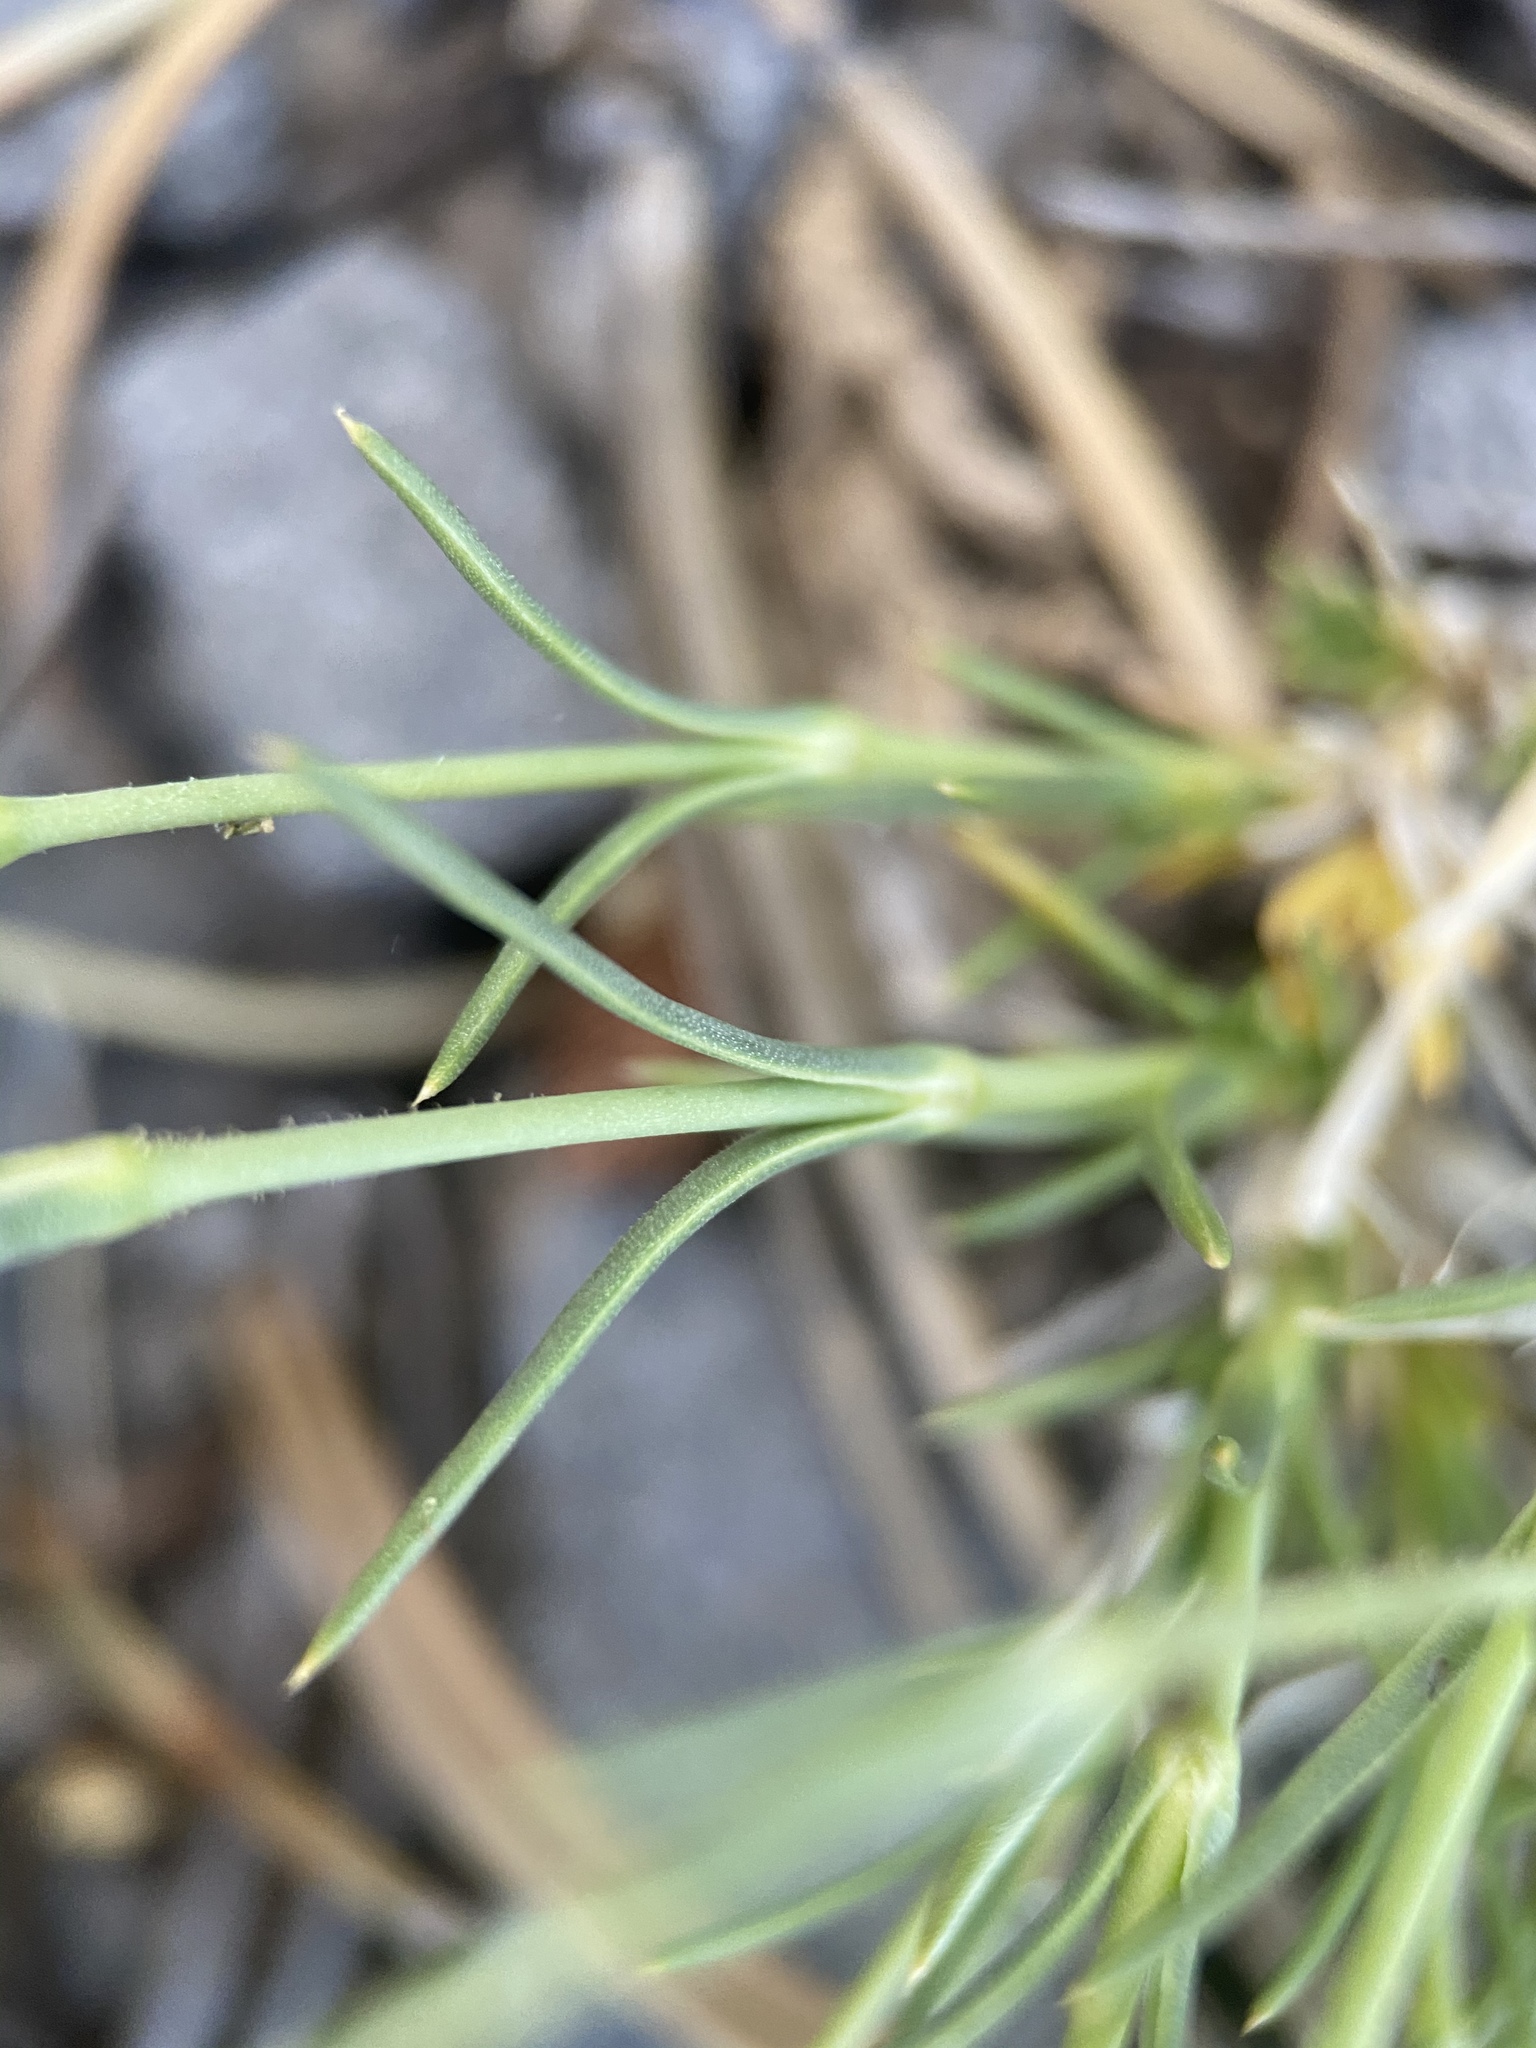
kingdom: Plantae
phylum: Tracheophyta
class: Magnoliopsida
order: Caryophyllales
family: Caryophyllaceae
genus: Eremogone
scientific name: Eremogone kingii
